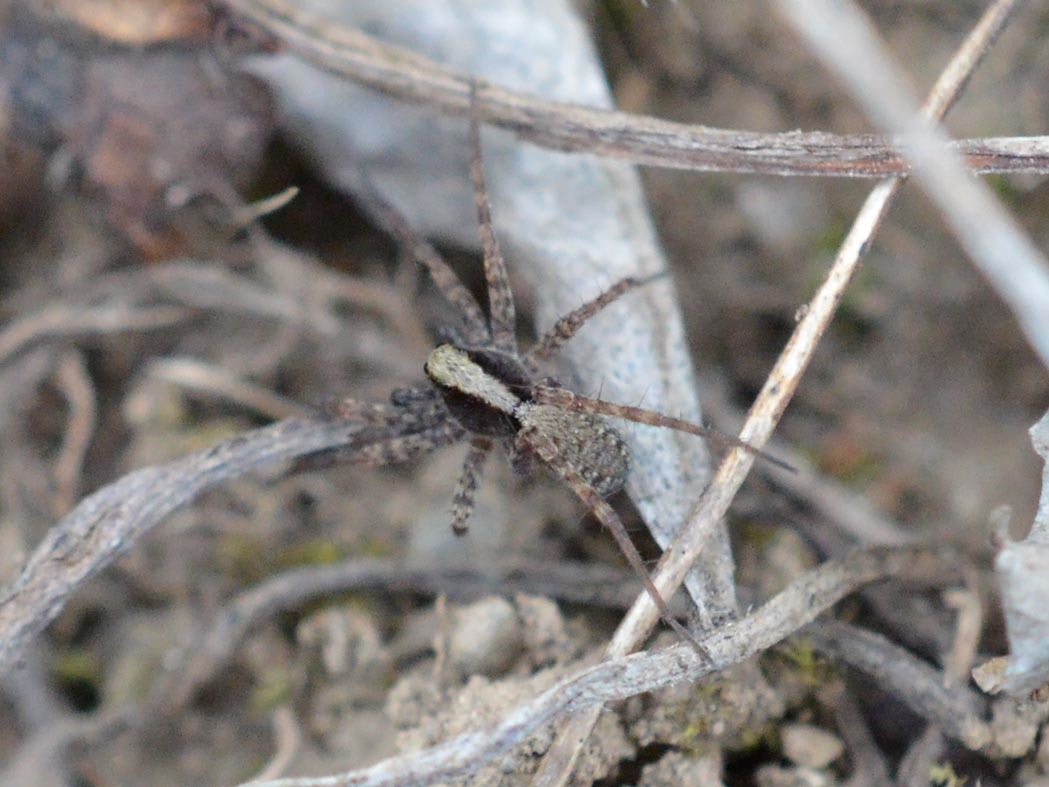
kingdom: Animalia
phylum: Arthropoda
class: Arachnida
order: Araneae
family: Lycosidae
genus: Pardosa
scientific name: Pardosa
